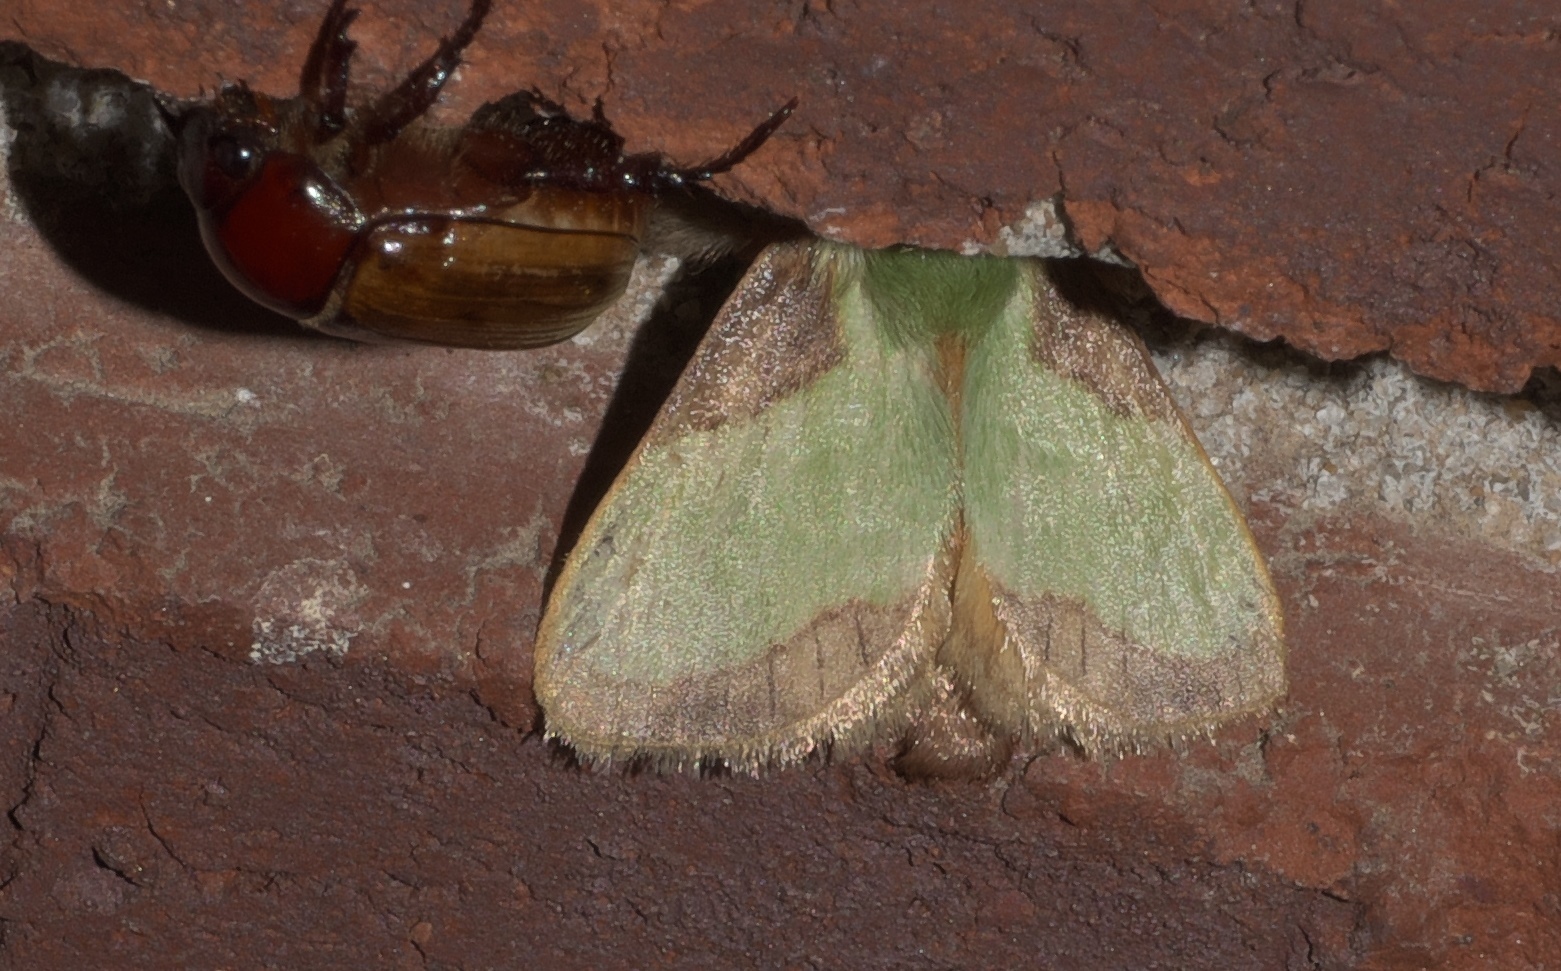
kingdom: Animalia
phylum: Arthropoda
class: Insecta
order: Lepidoptera
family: Limacodidae
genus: Parasa
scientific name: Parasa indetermina
